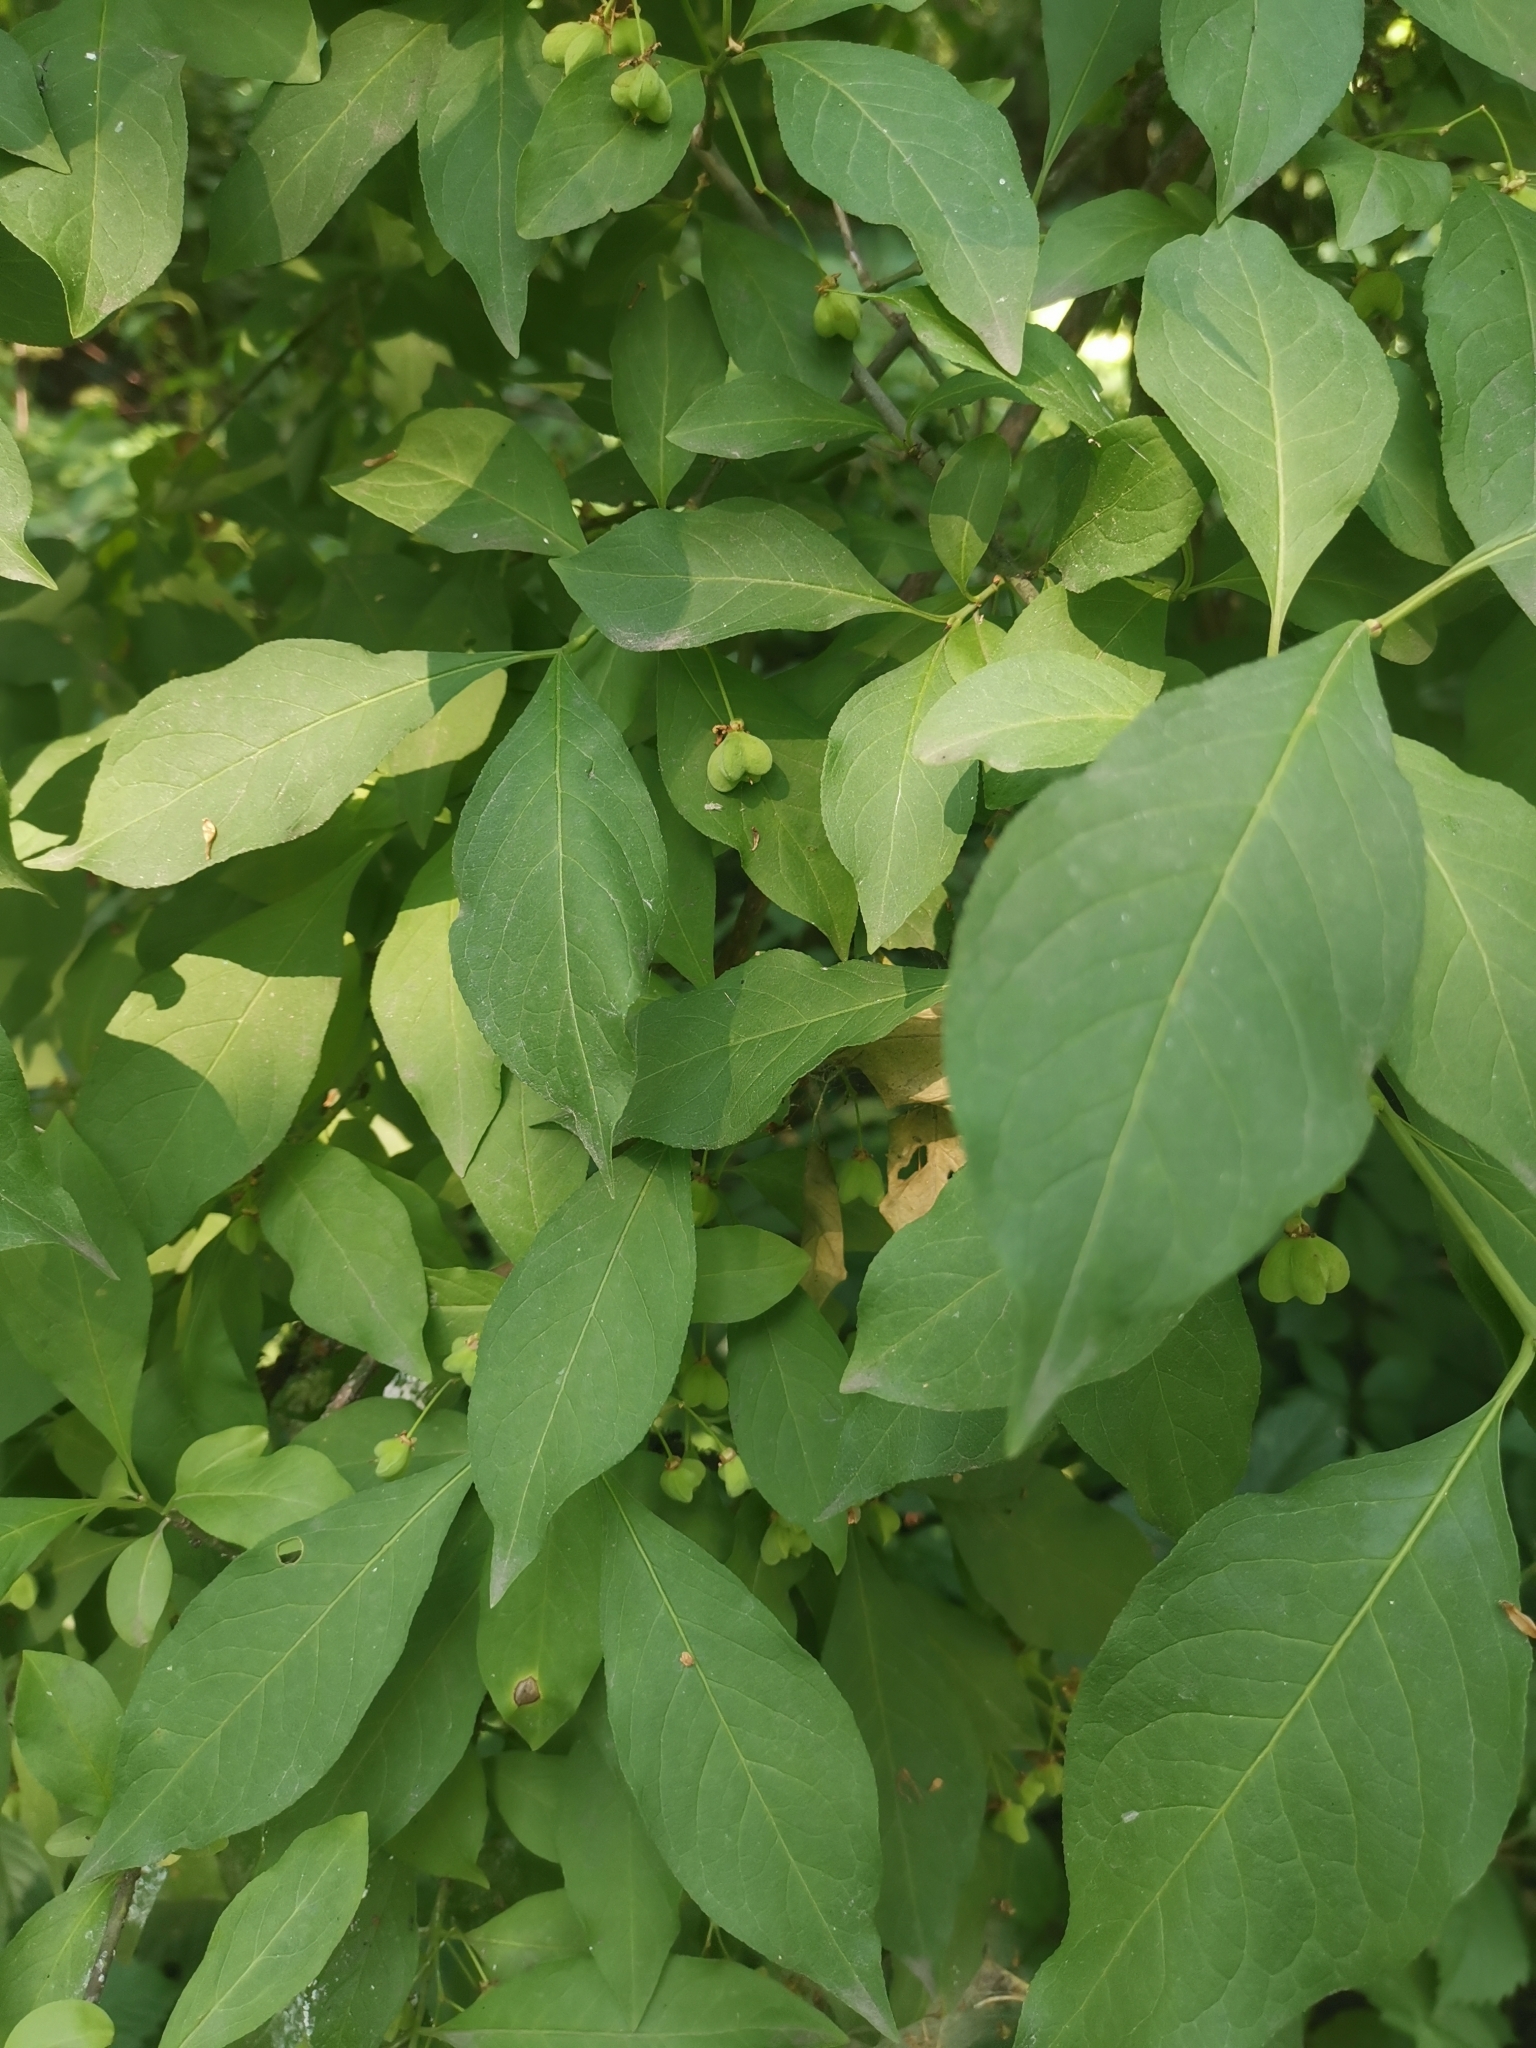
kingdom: Plantae
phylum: Tracheophyta
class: Magnoliopsida
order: Celastrales
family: Celastraceae
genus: Euonymus
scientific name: Euonymus europaeus
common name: Spindle
